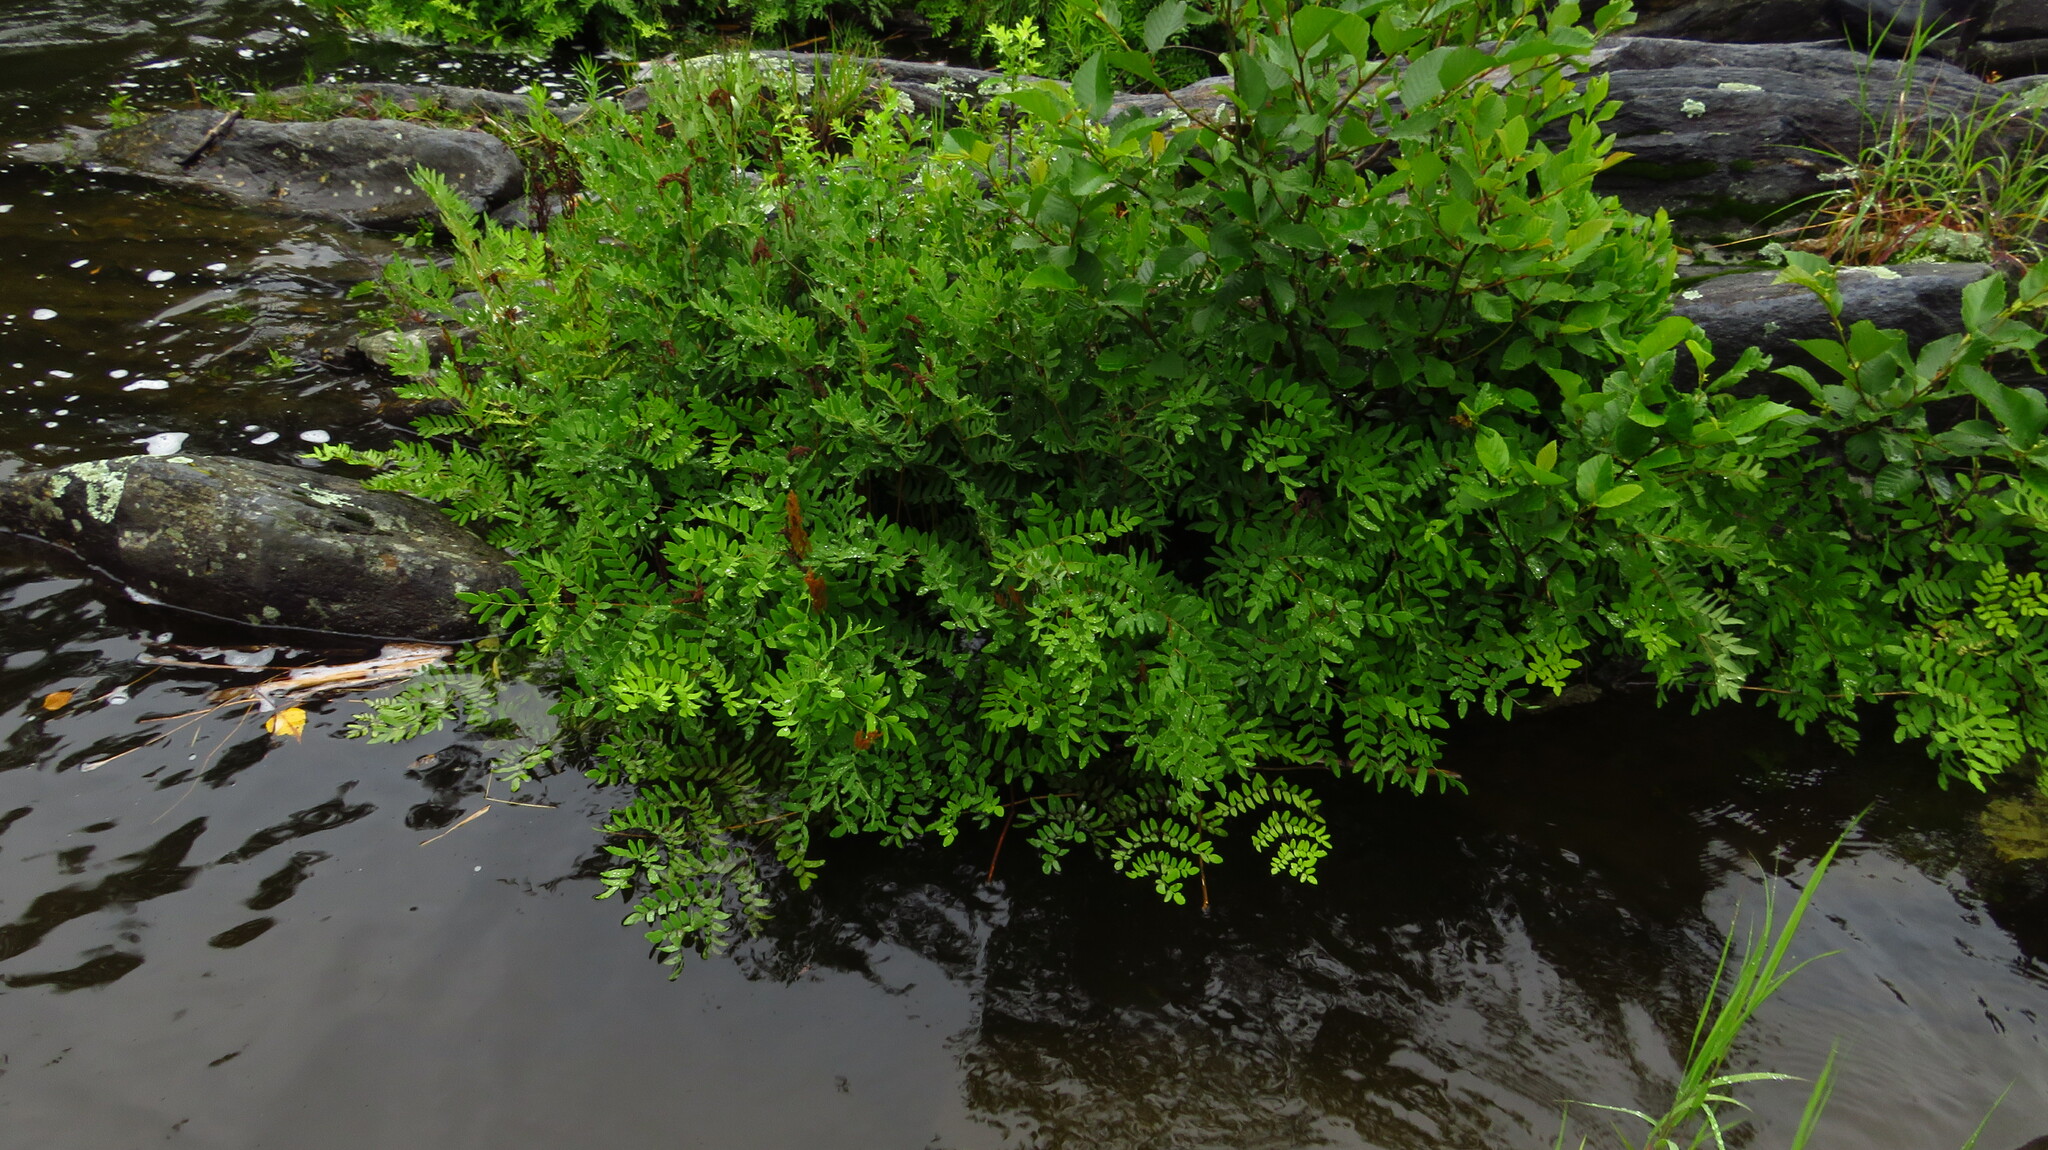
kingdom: Plantae
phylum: Tracheophyta
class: Polypodiopsida
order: Osmundales
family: Osmundaceae
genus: Osmunda
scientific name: Osmunda spectabilis
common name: American royal fern
